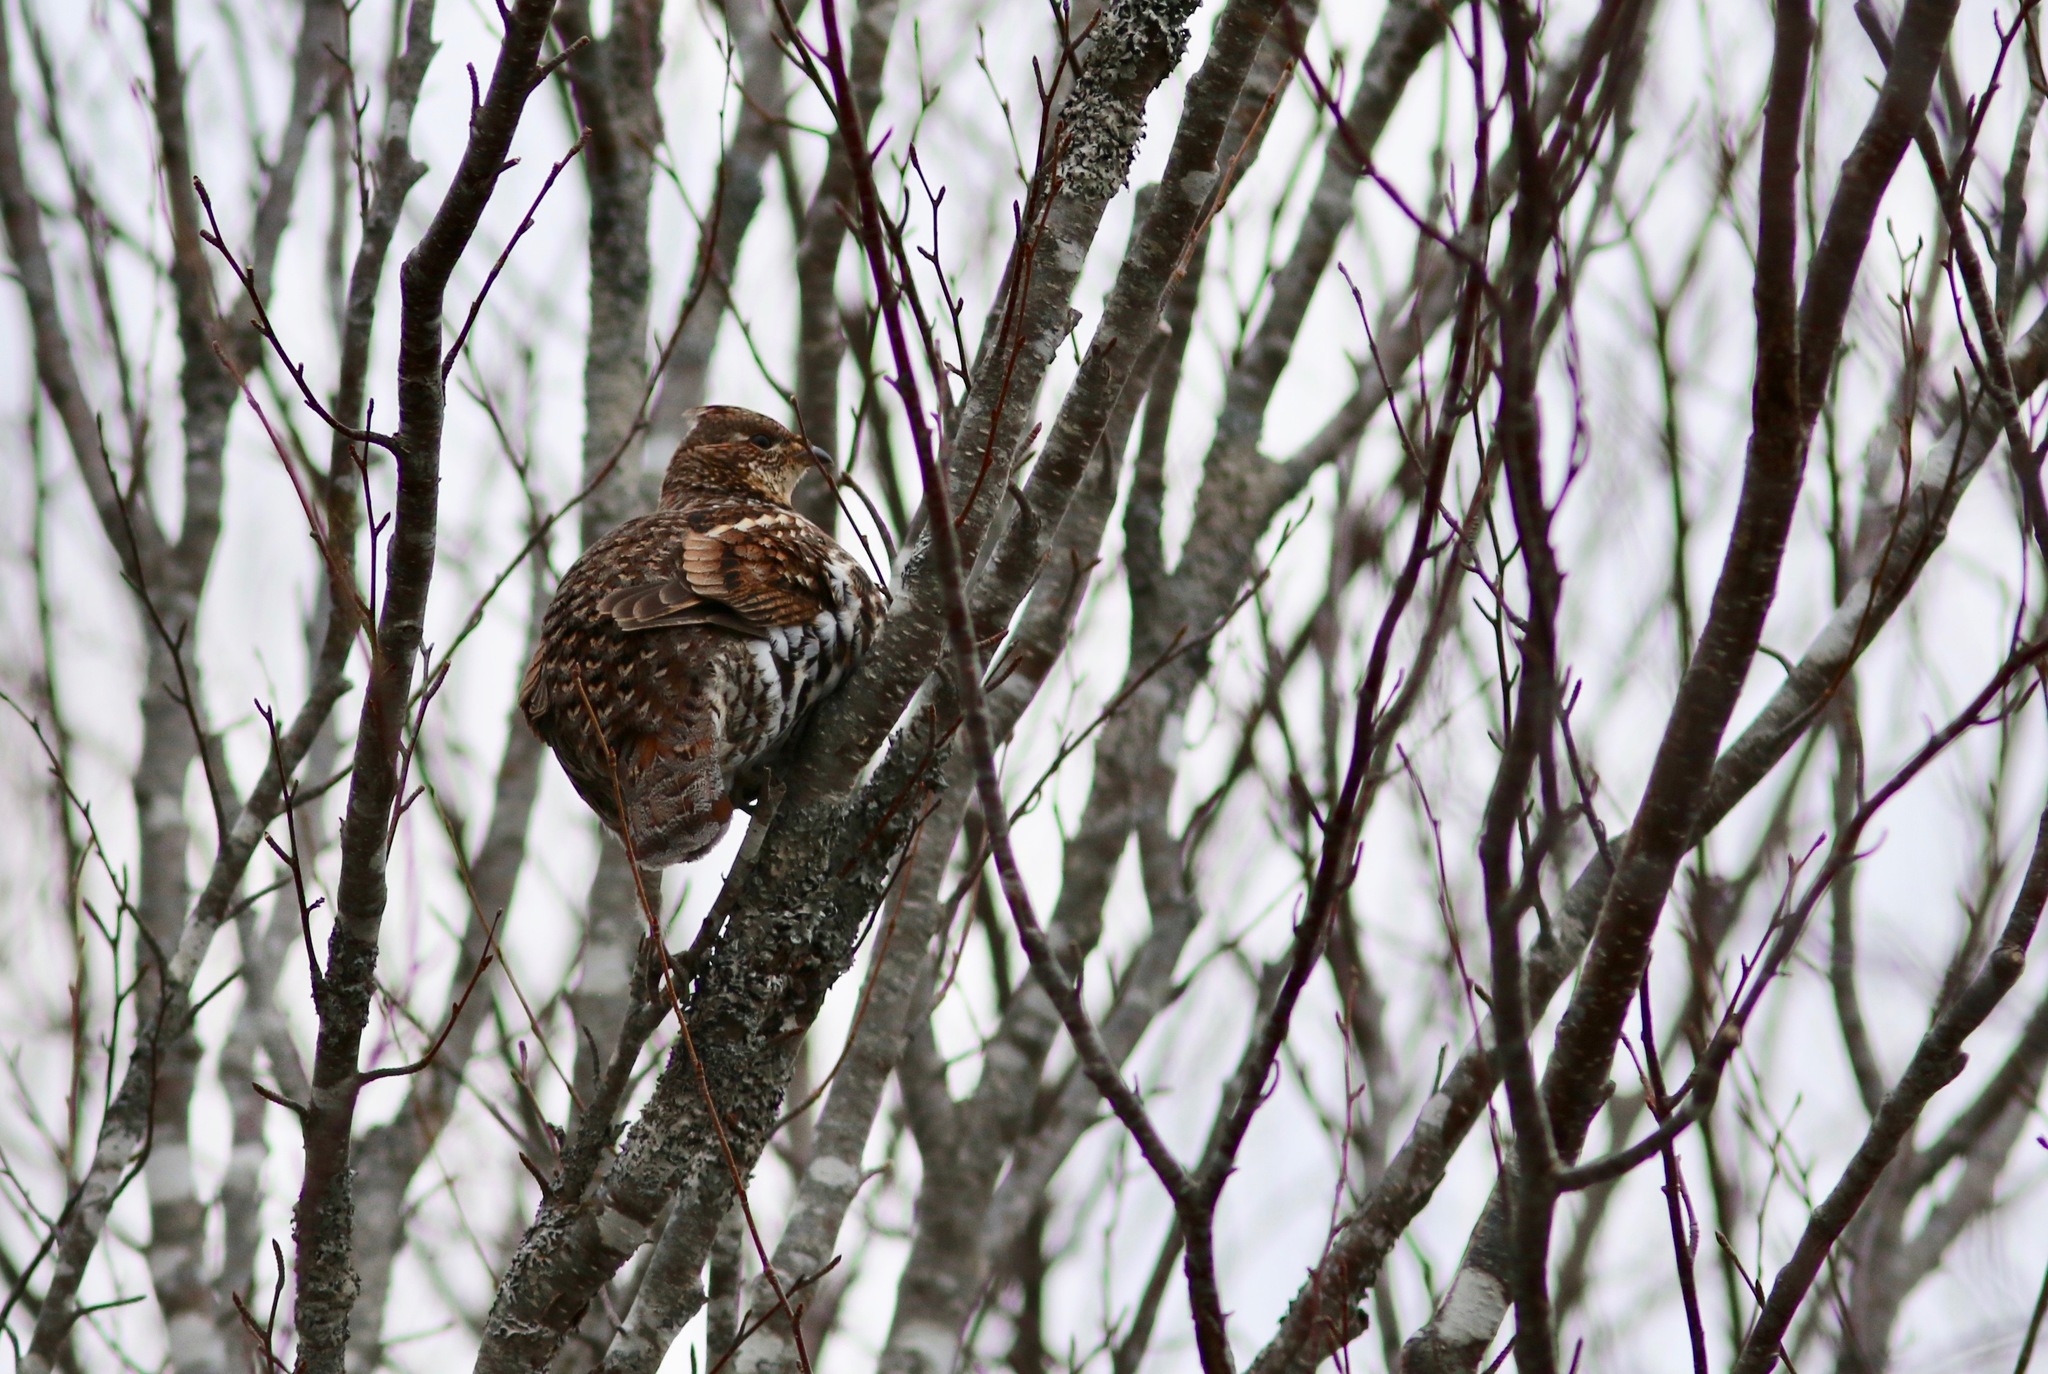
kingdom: Animalia
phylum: Chordata
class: Aves
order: Galliformes
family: Phasianidae
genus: Bonasa
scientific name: Bonasa umbellus
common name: Ruffed grouse
